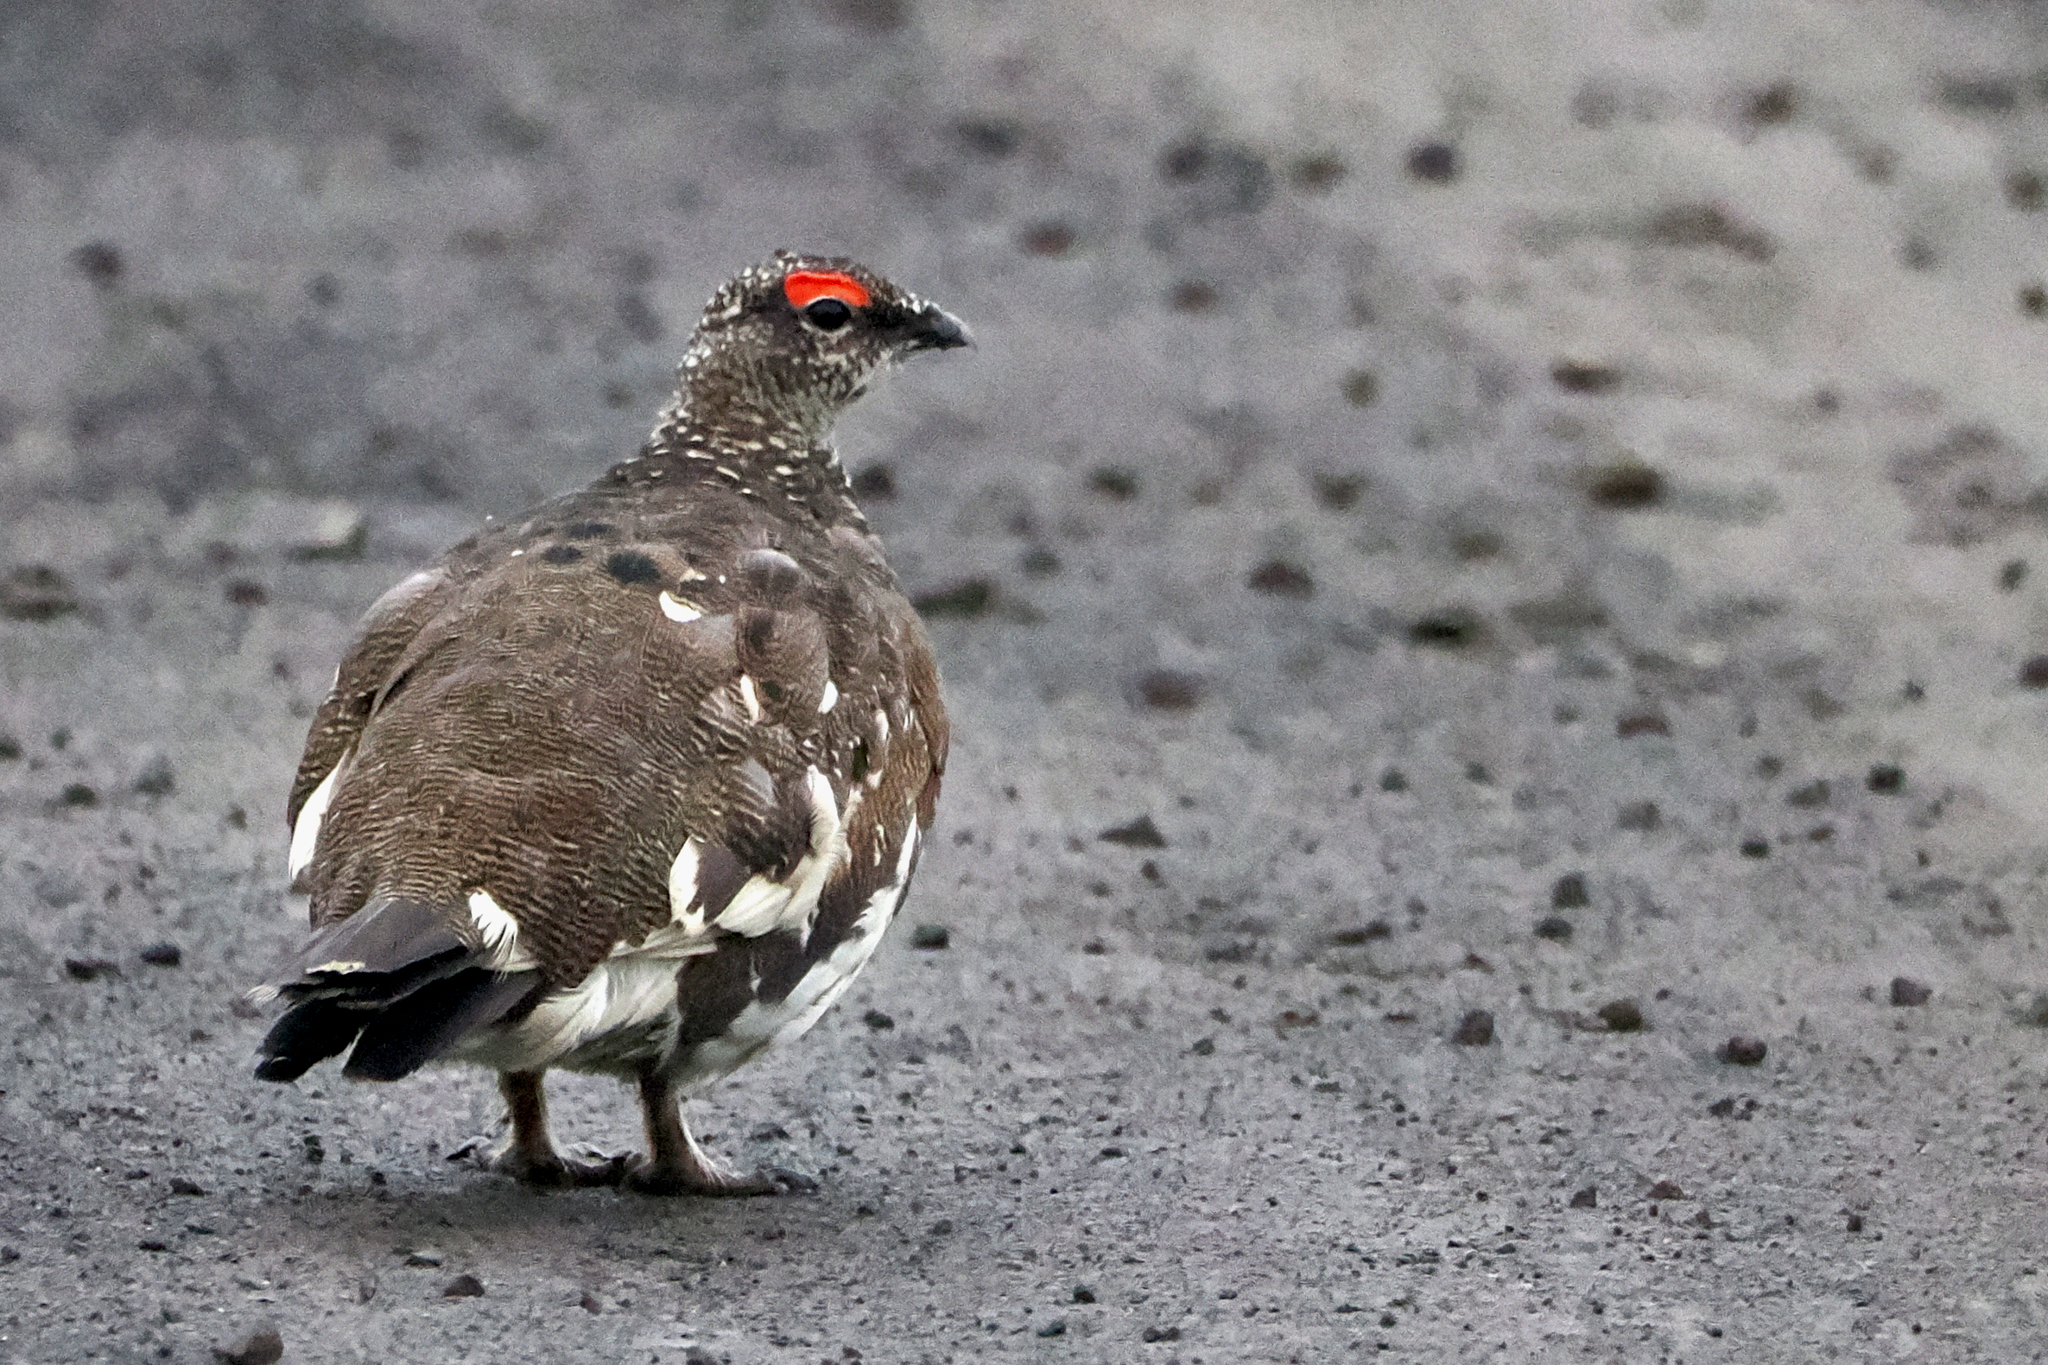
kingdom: Animalia
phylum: Chordata
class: Aves
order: Galliformes
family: Phasianidae
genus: Lagopus
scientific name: Lagopus muta
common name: Rock ptarmigan
